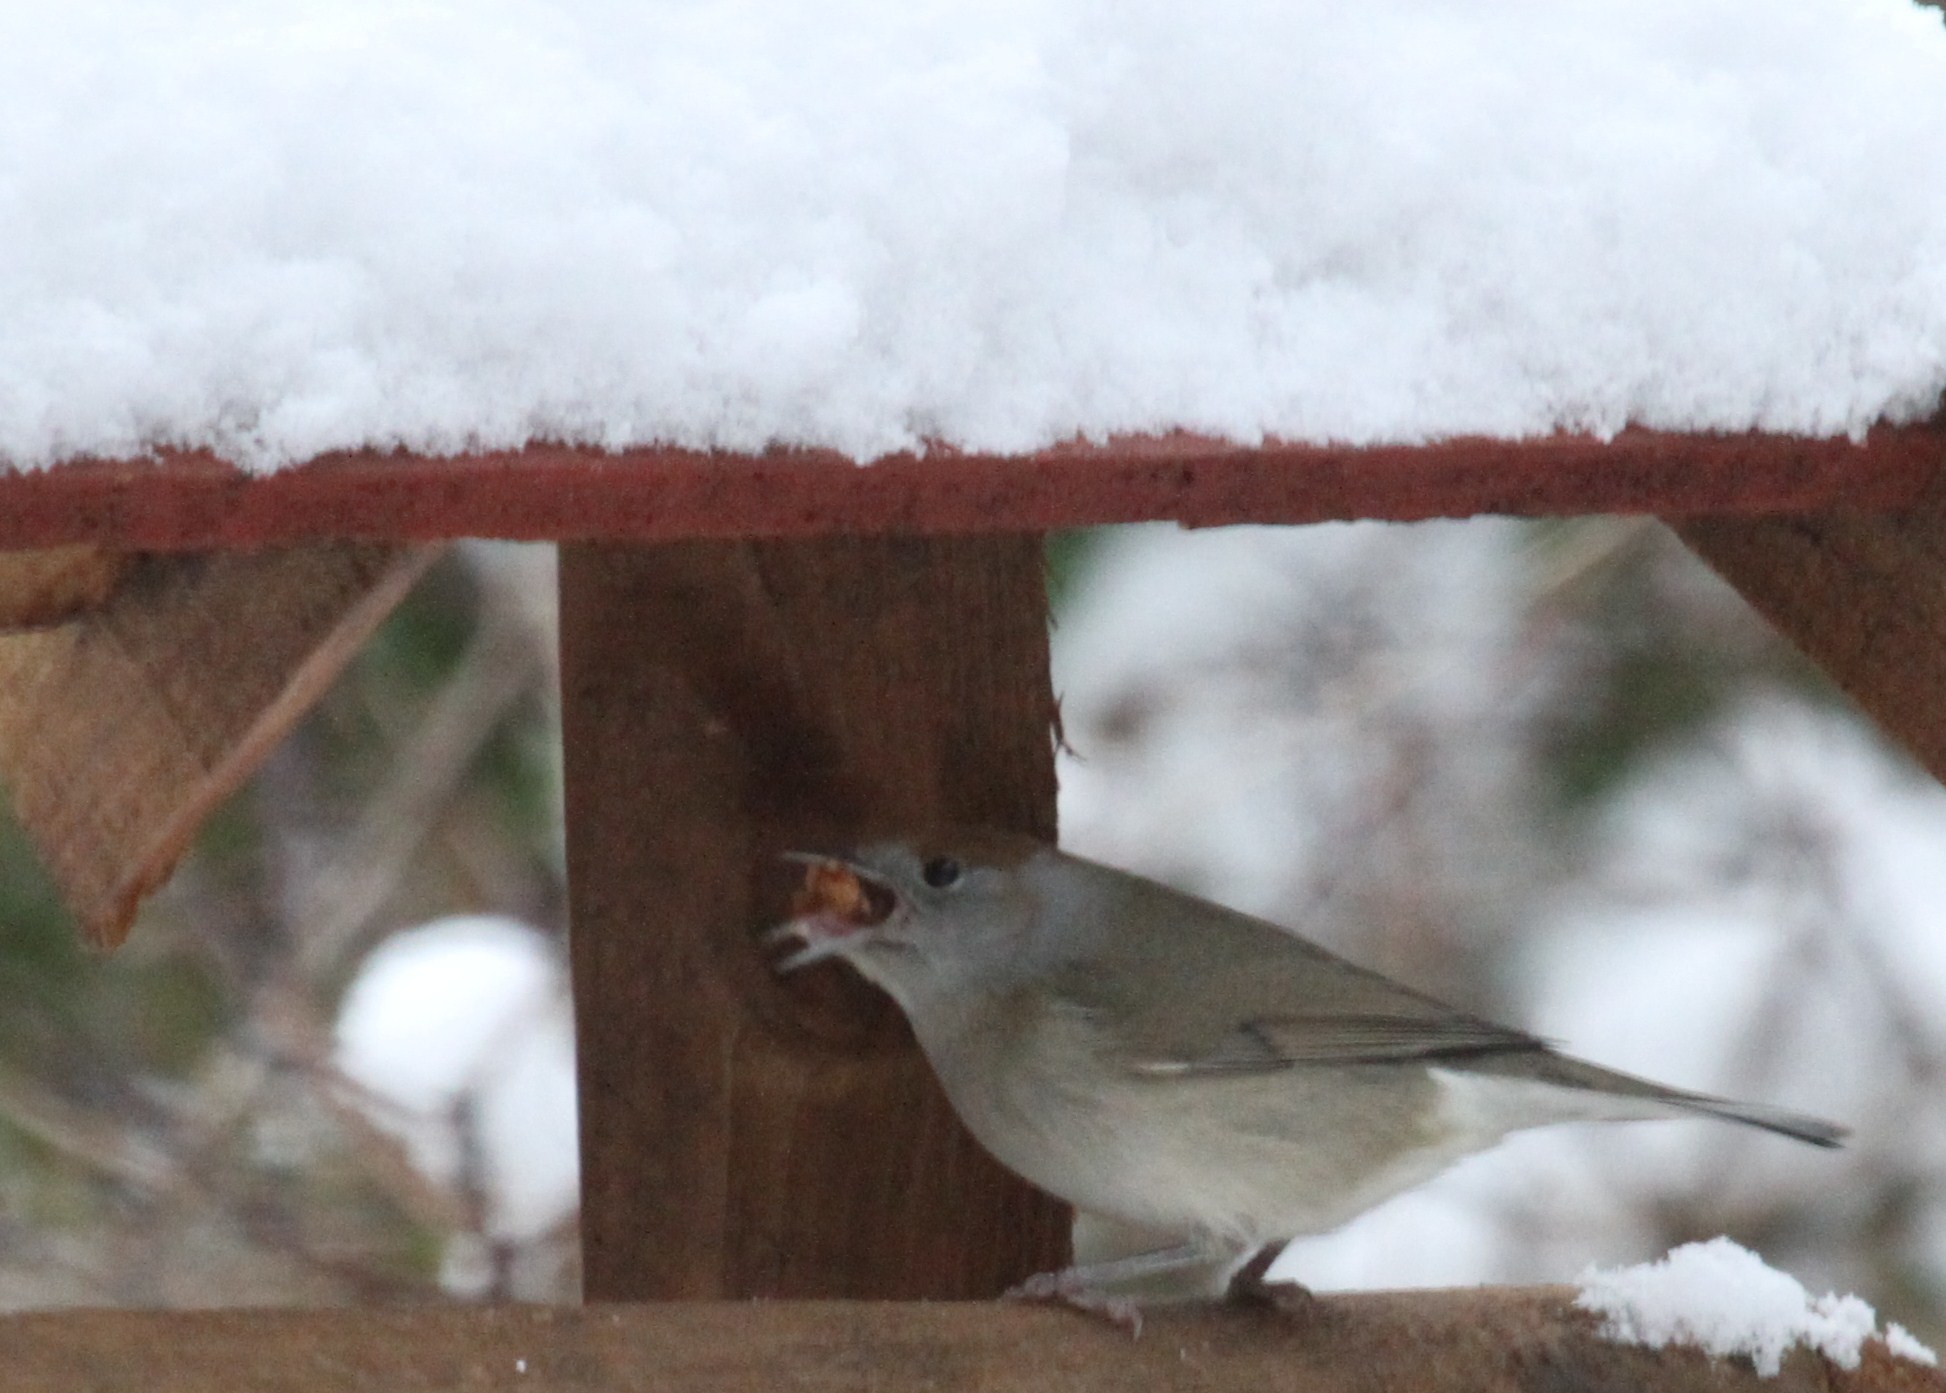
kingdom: Animalia
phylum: Chordata
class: Aves
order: Passeriformes
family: Sylviidae
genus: Sylvia
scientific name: Sylvia atricapilla
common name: Eurasian blackcap
